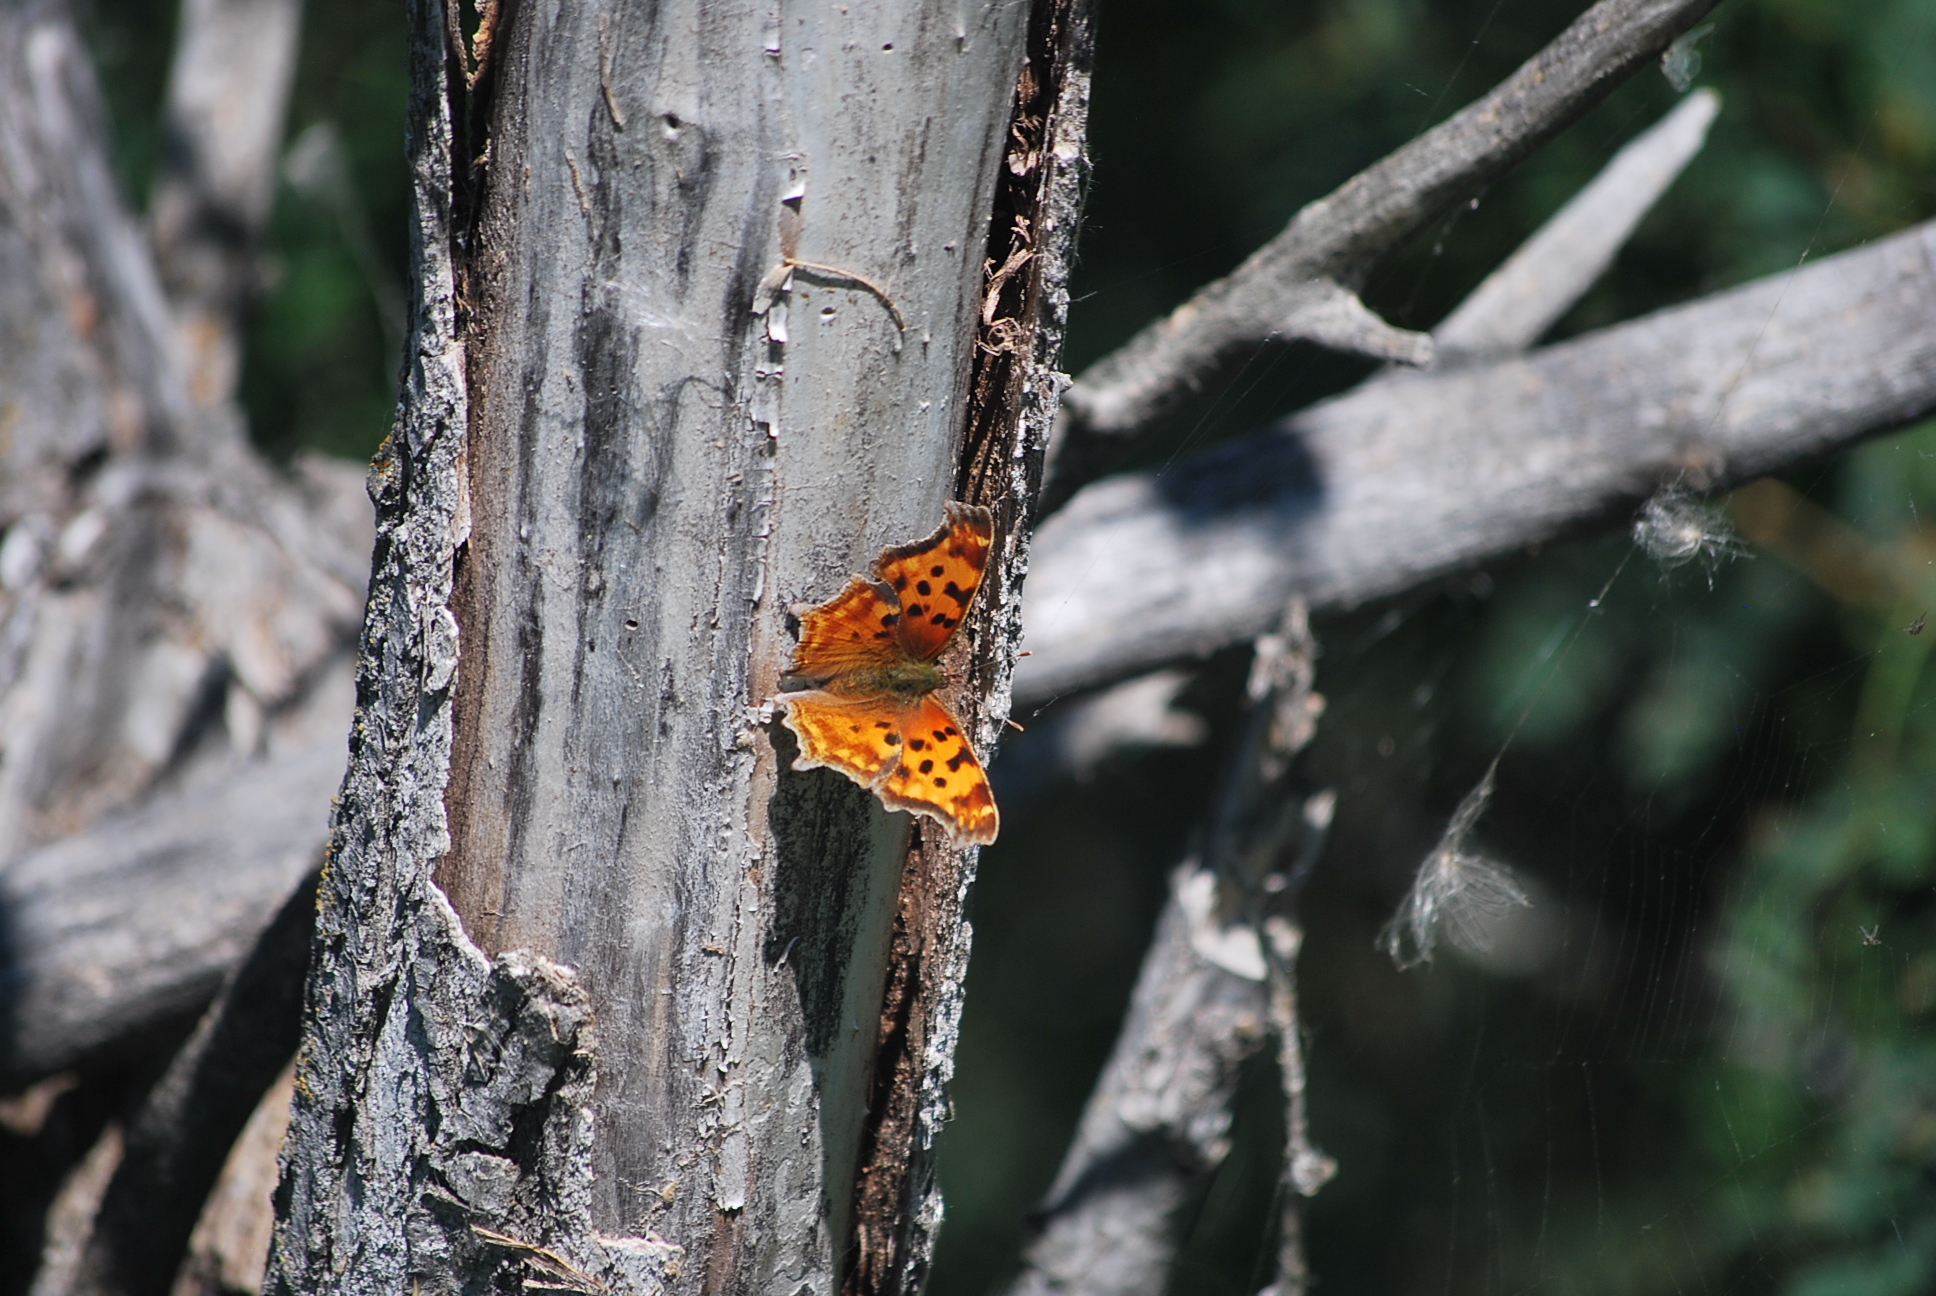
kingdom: Animalia
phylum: Arthropoda
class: Insecta
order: Lepidoptera
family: Nymphalidae
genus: Polygonia
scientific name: Polygonia satyrus
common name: Satyr angle wing
